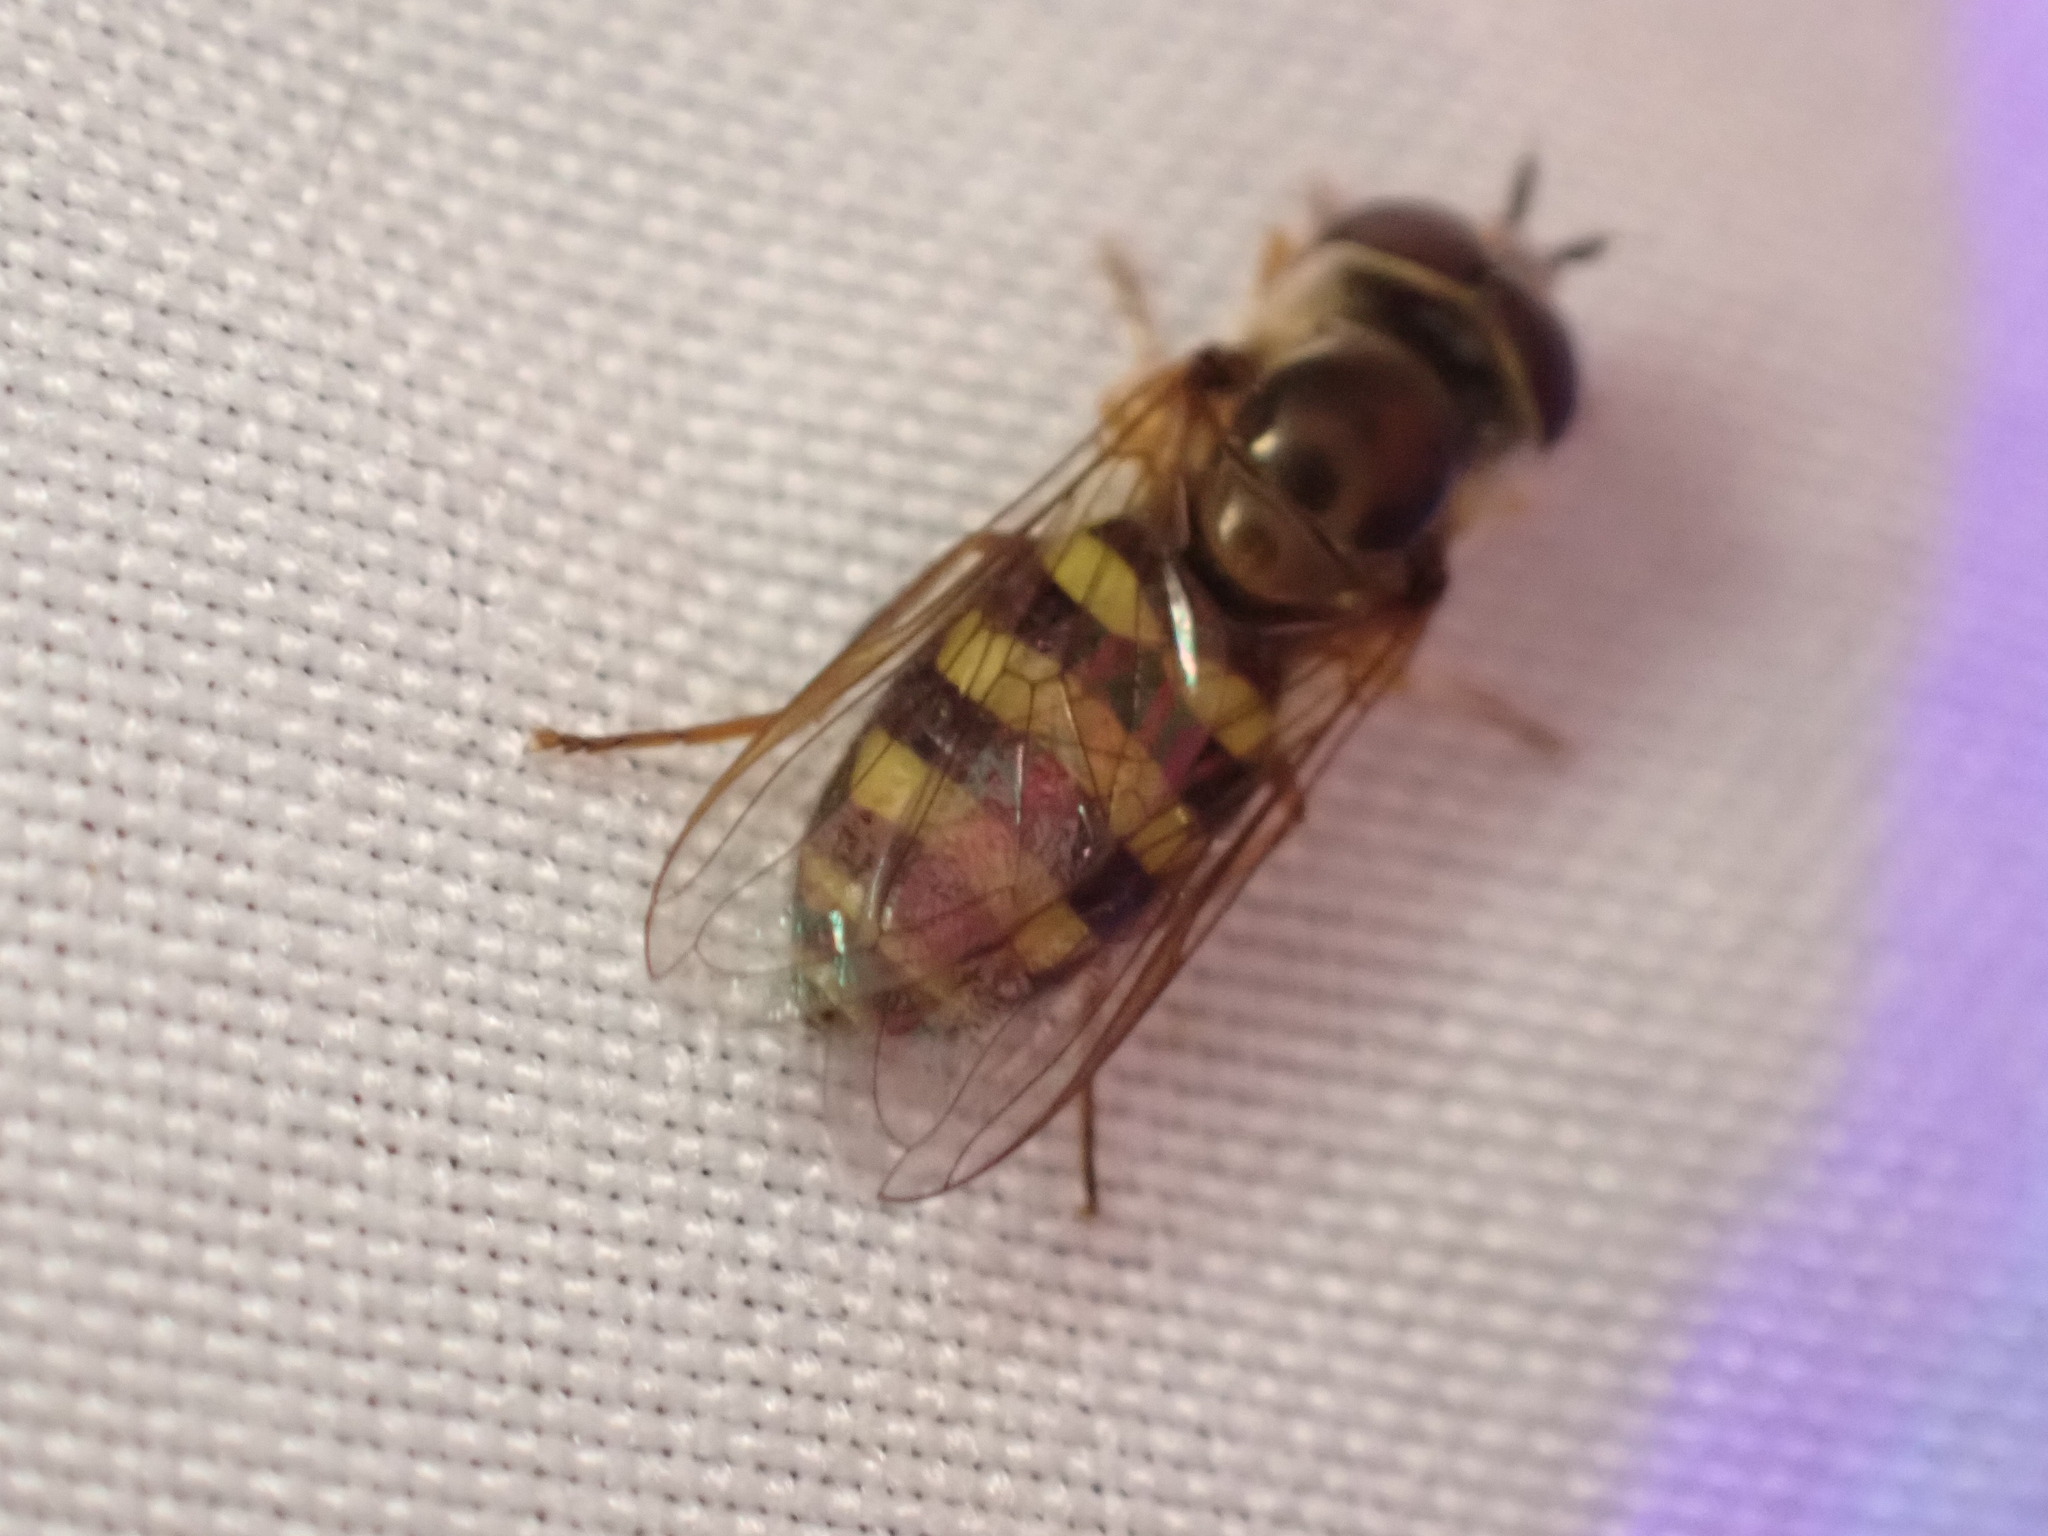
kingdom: Animalia
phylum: Arthropoda
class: Insecta
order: Diptera
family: Syrphidae
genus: Eupeodes
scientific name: Eupeodes
